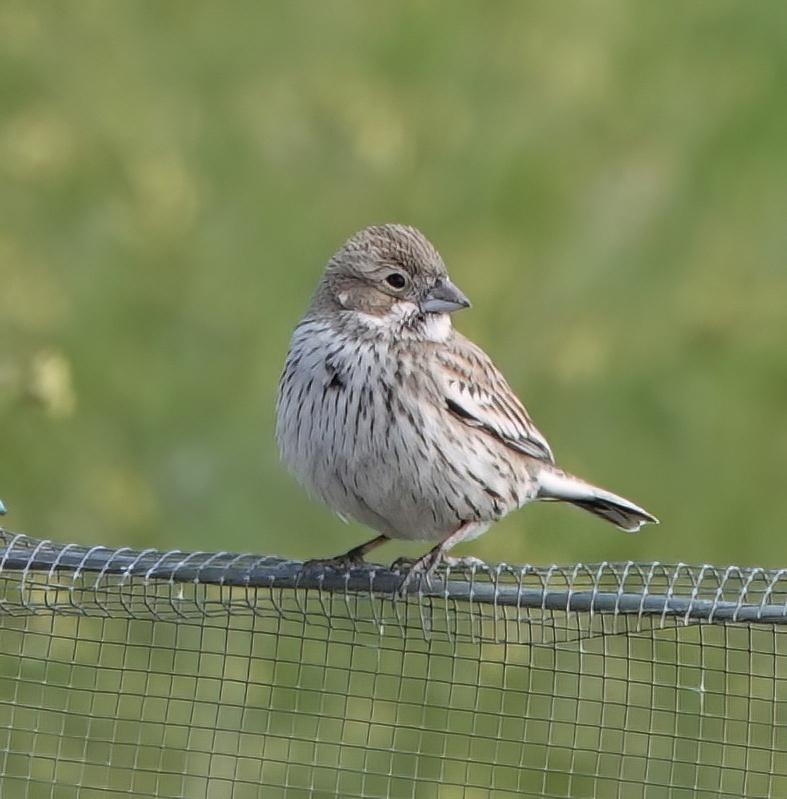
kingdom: Animalia
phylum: Chordata
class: Aves
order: Passeriformes
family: Passerellidae
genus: Calamospiza
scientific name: Calamospiza melanocorys
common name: Lark bunting
